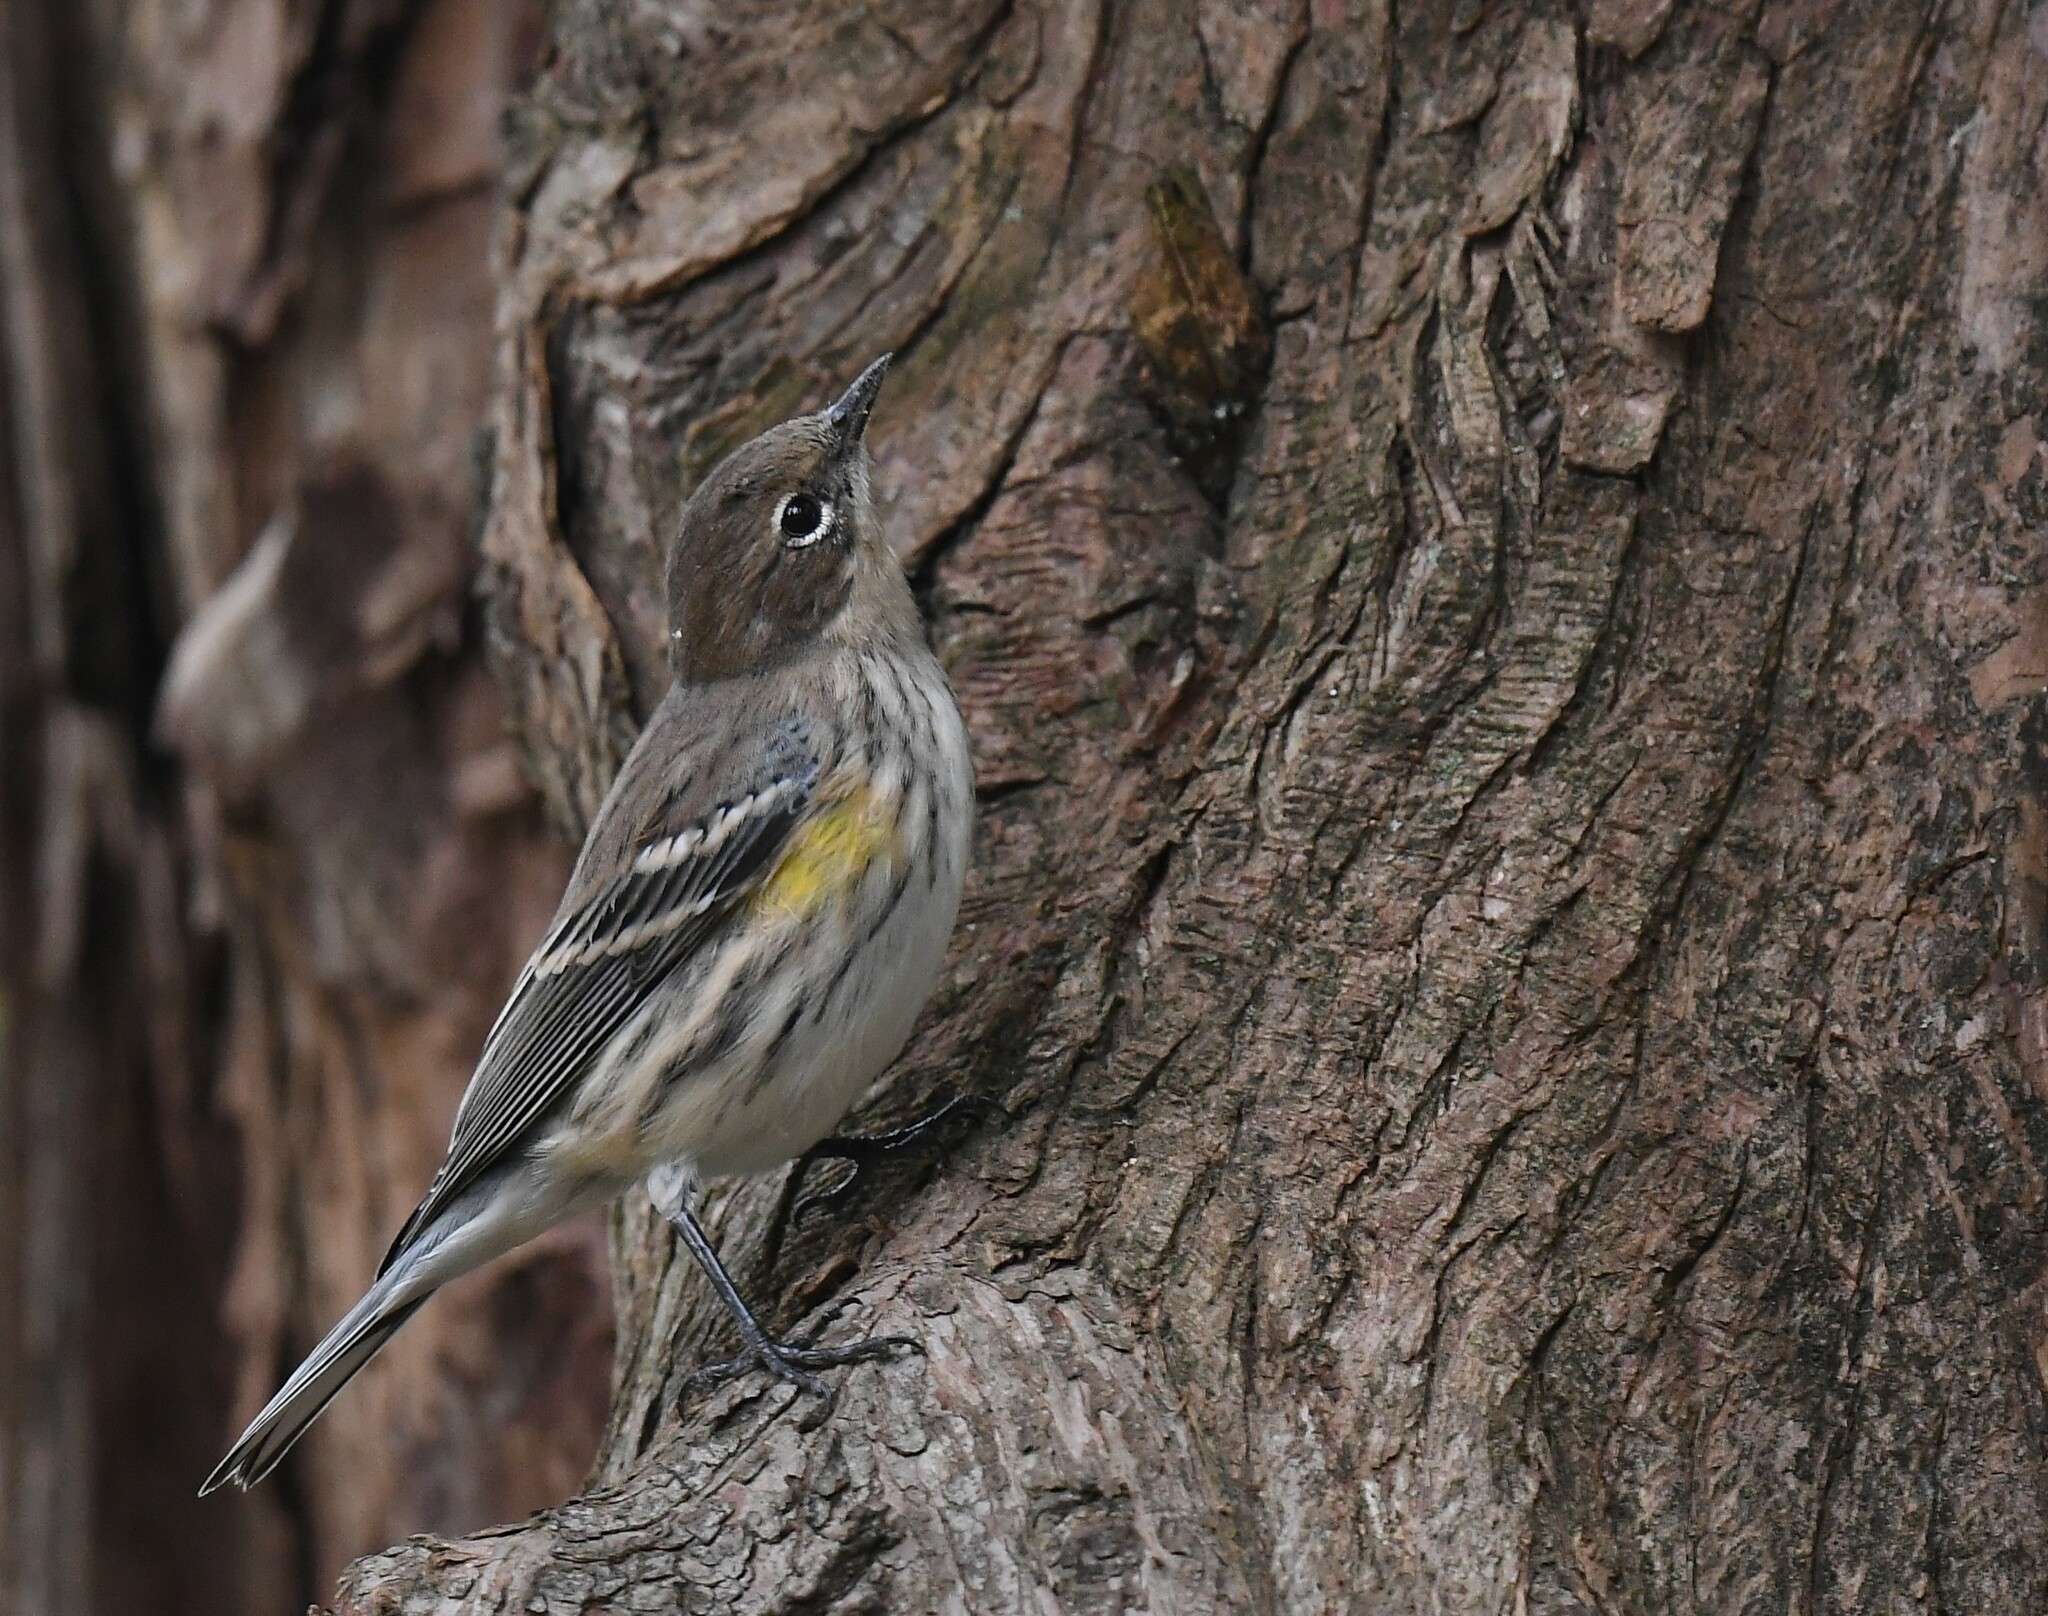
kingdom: Animalia
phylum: Chordata
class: Aves
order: Passeriformes
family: Parulidae
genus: Setophaga
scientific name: Setophaga coronata
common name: Myrtle warbler
